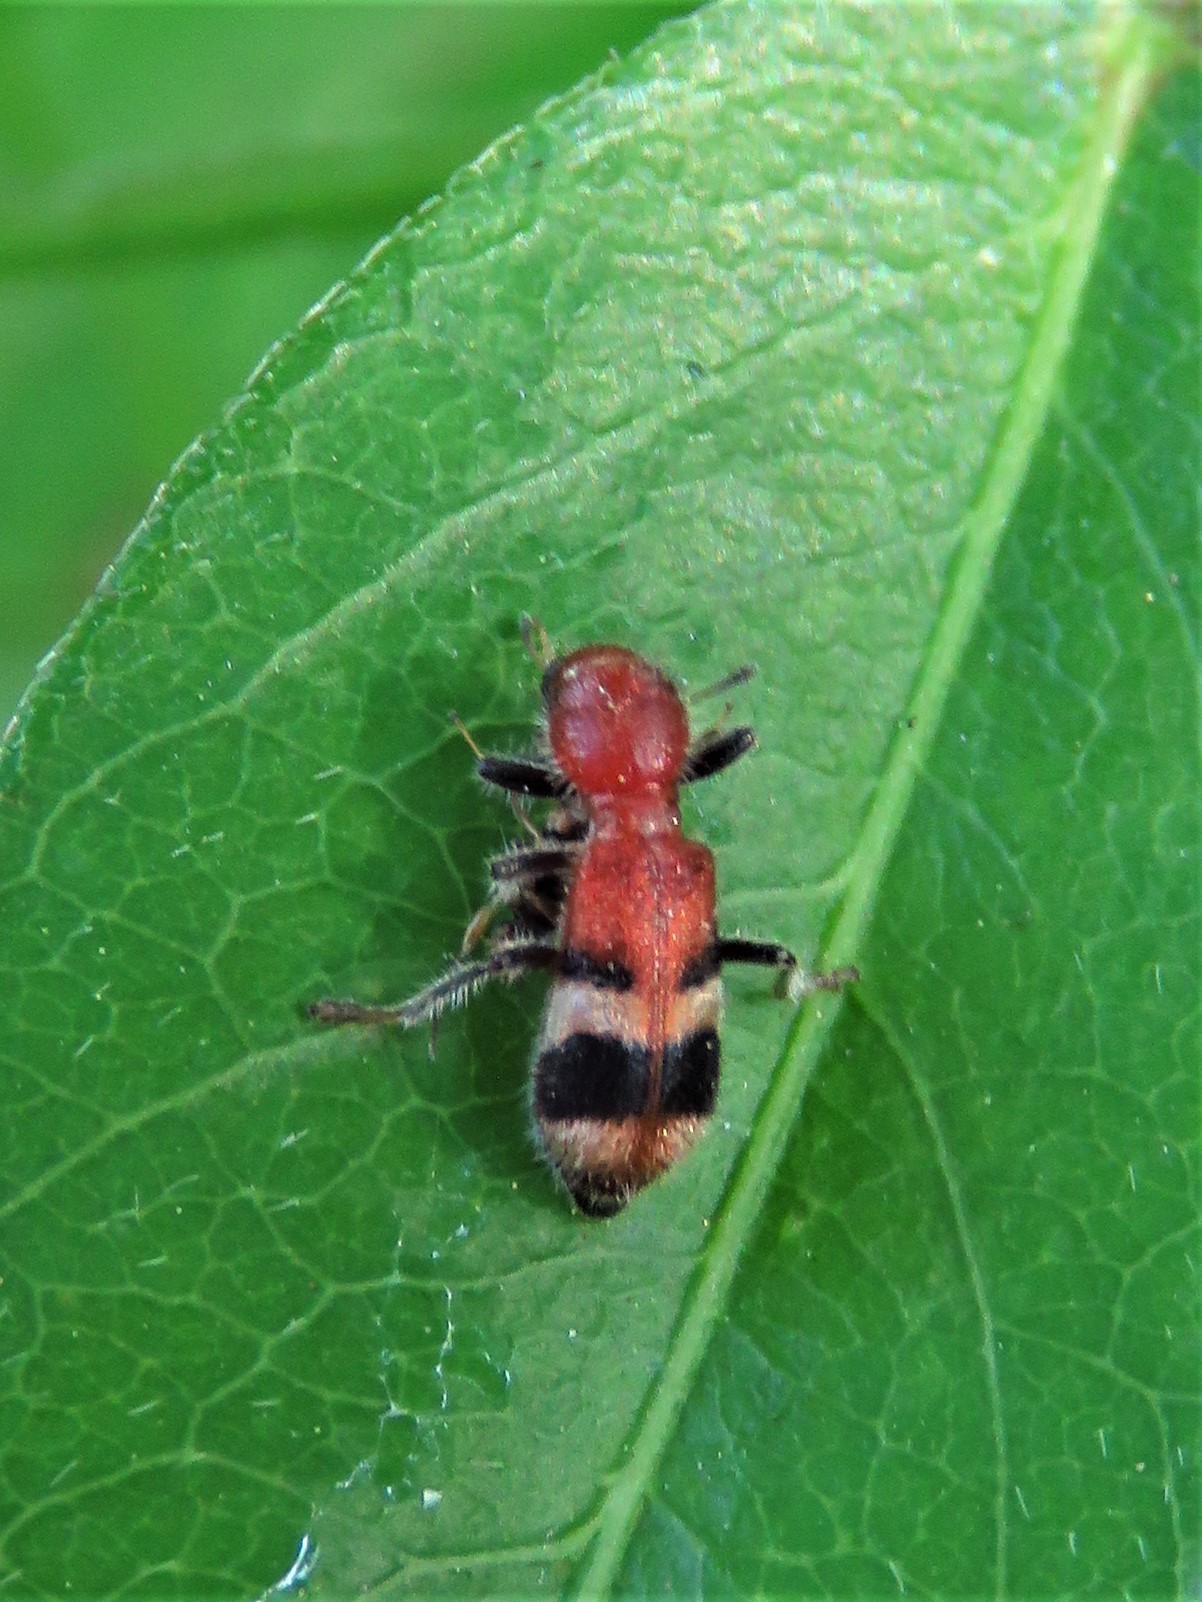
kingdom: Animalia
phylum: Arthropoda
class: Insecta
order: Coleoptera
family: Cleridae
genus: Enoclerus
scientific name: Enoclerus rosmarus
